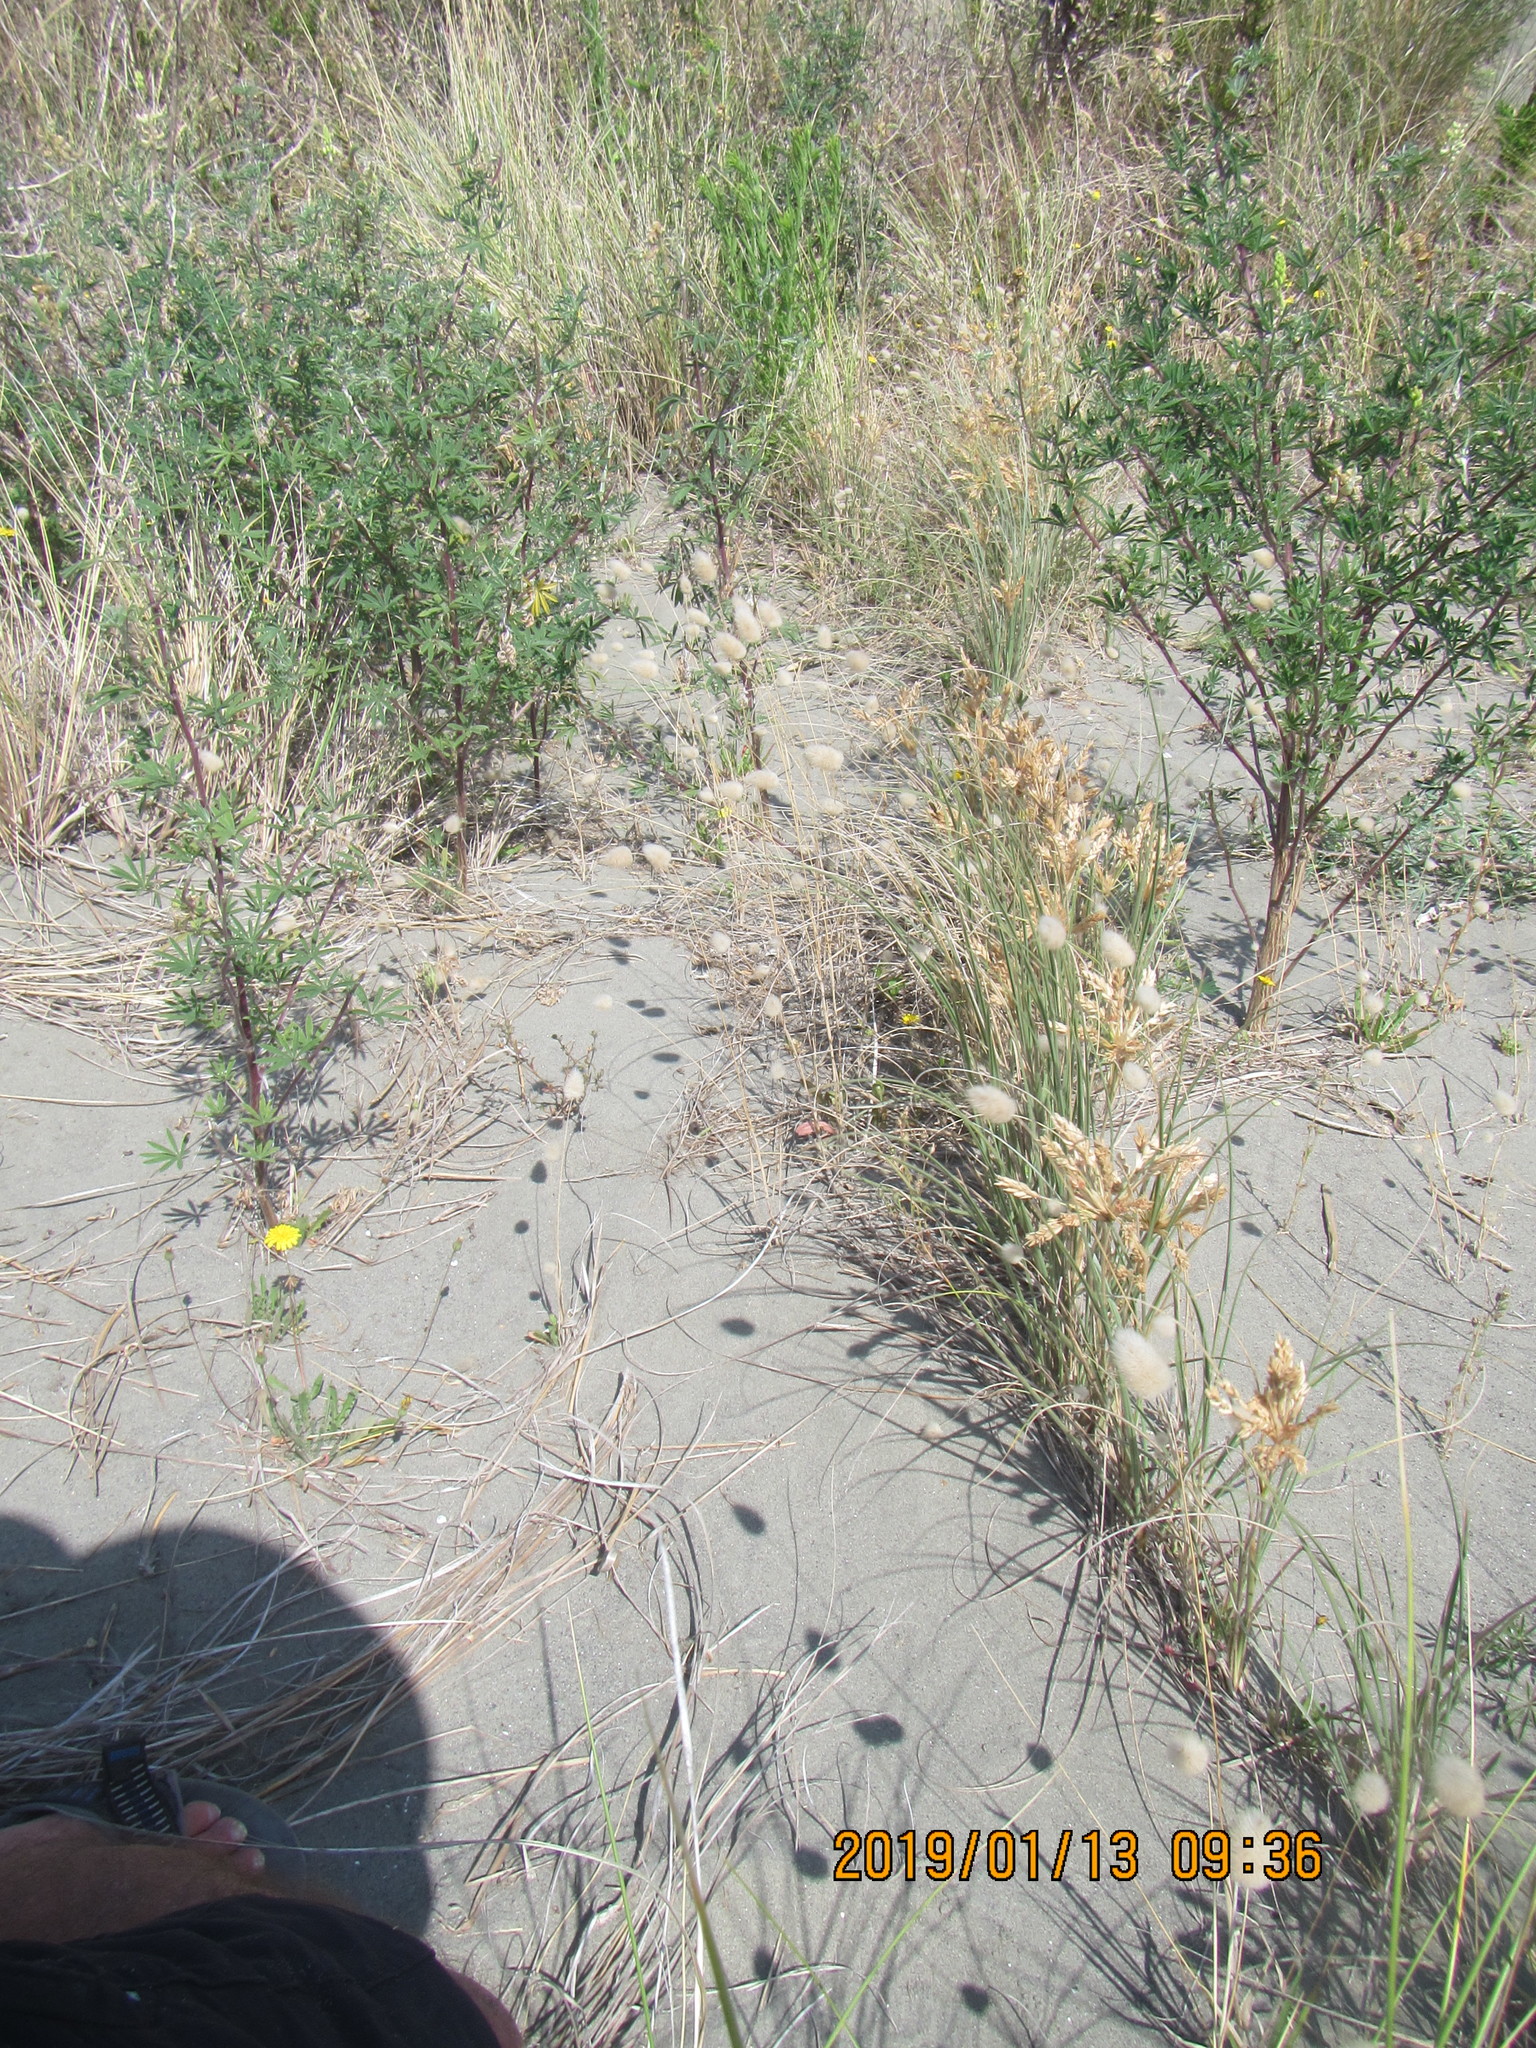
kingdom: Plantae
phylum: Tracheophyta
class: Liliopsida
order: Poales
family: Poaceae
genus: Spinifex
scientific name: Spinifex sericeus
